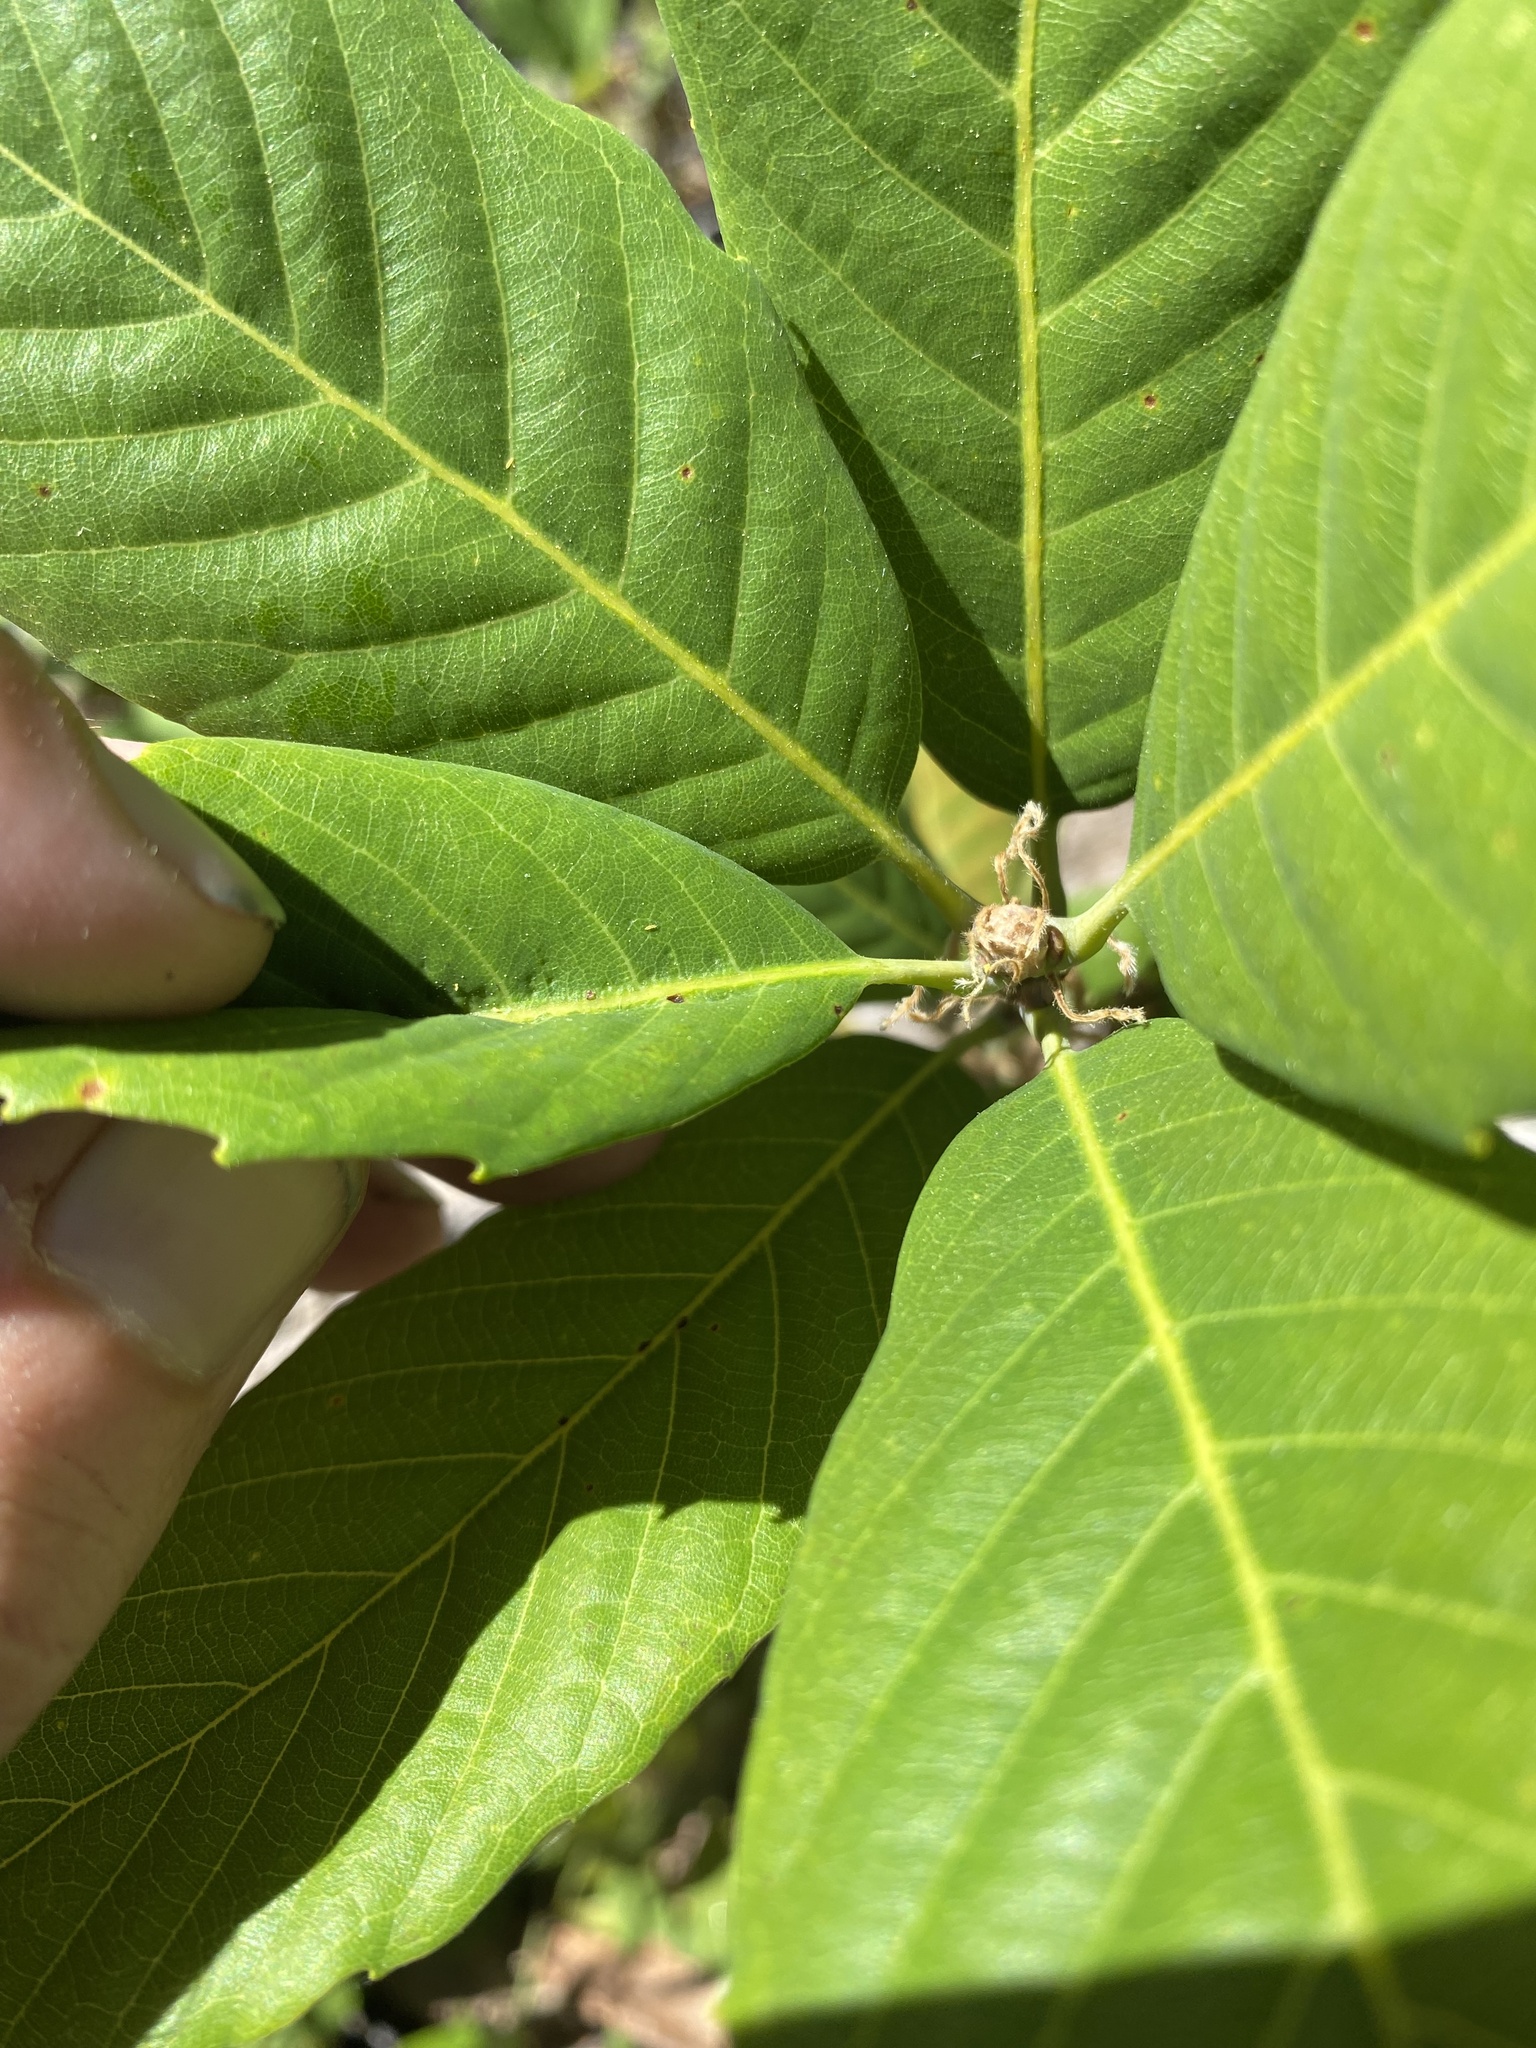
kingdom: Plantae
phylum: Tracheophyta
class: Magnoliopsida
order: Fagales
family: Fagaceae
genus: Quercus
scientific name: Quercus sadleriana
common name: Deer oak
